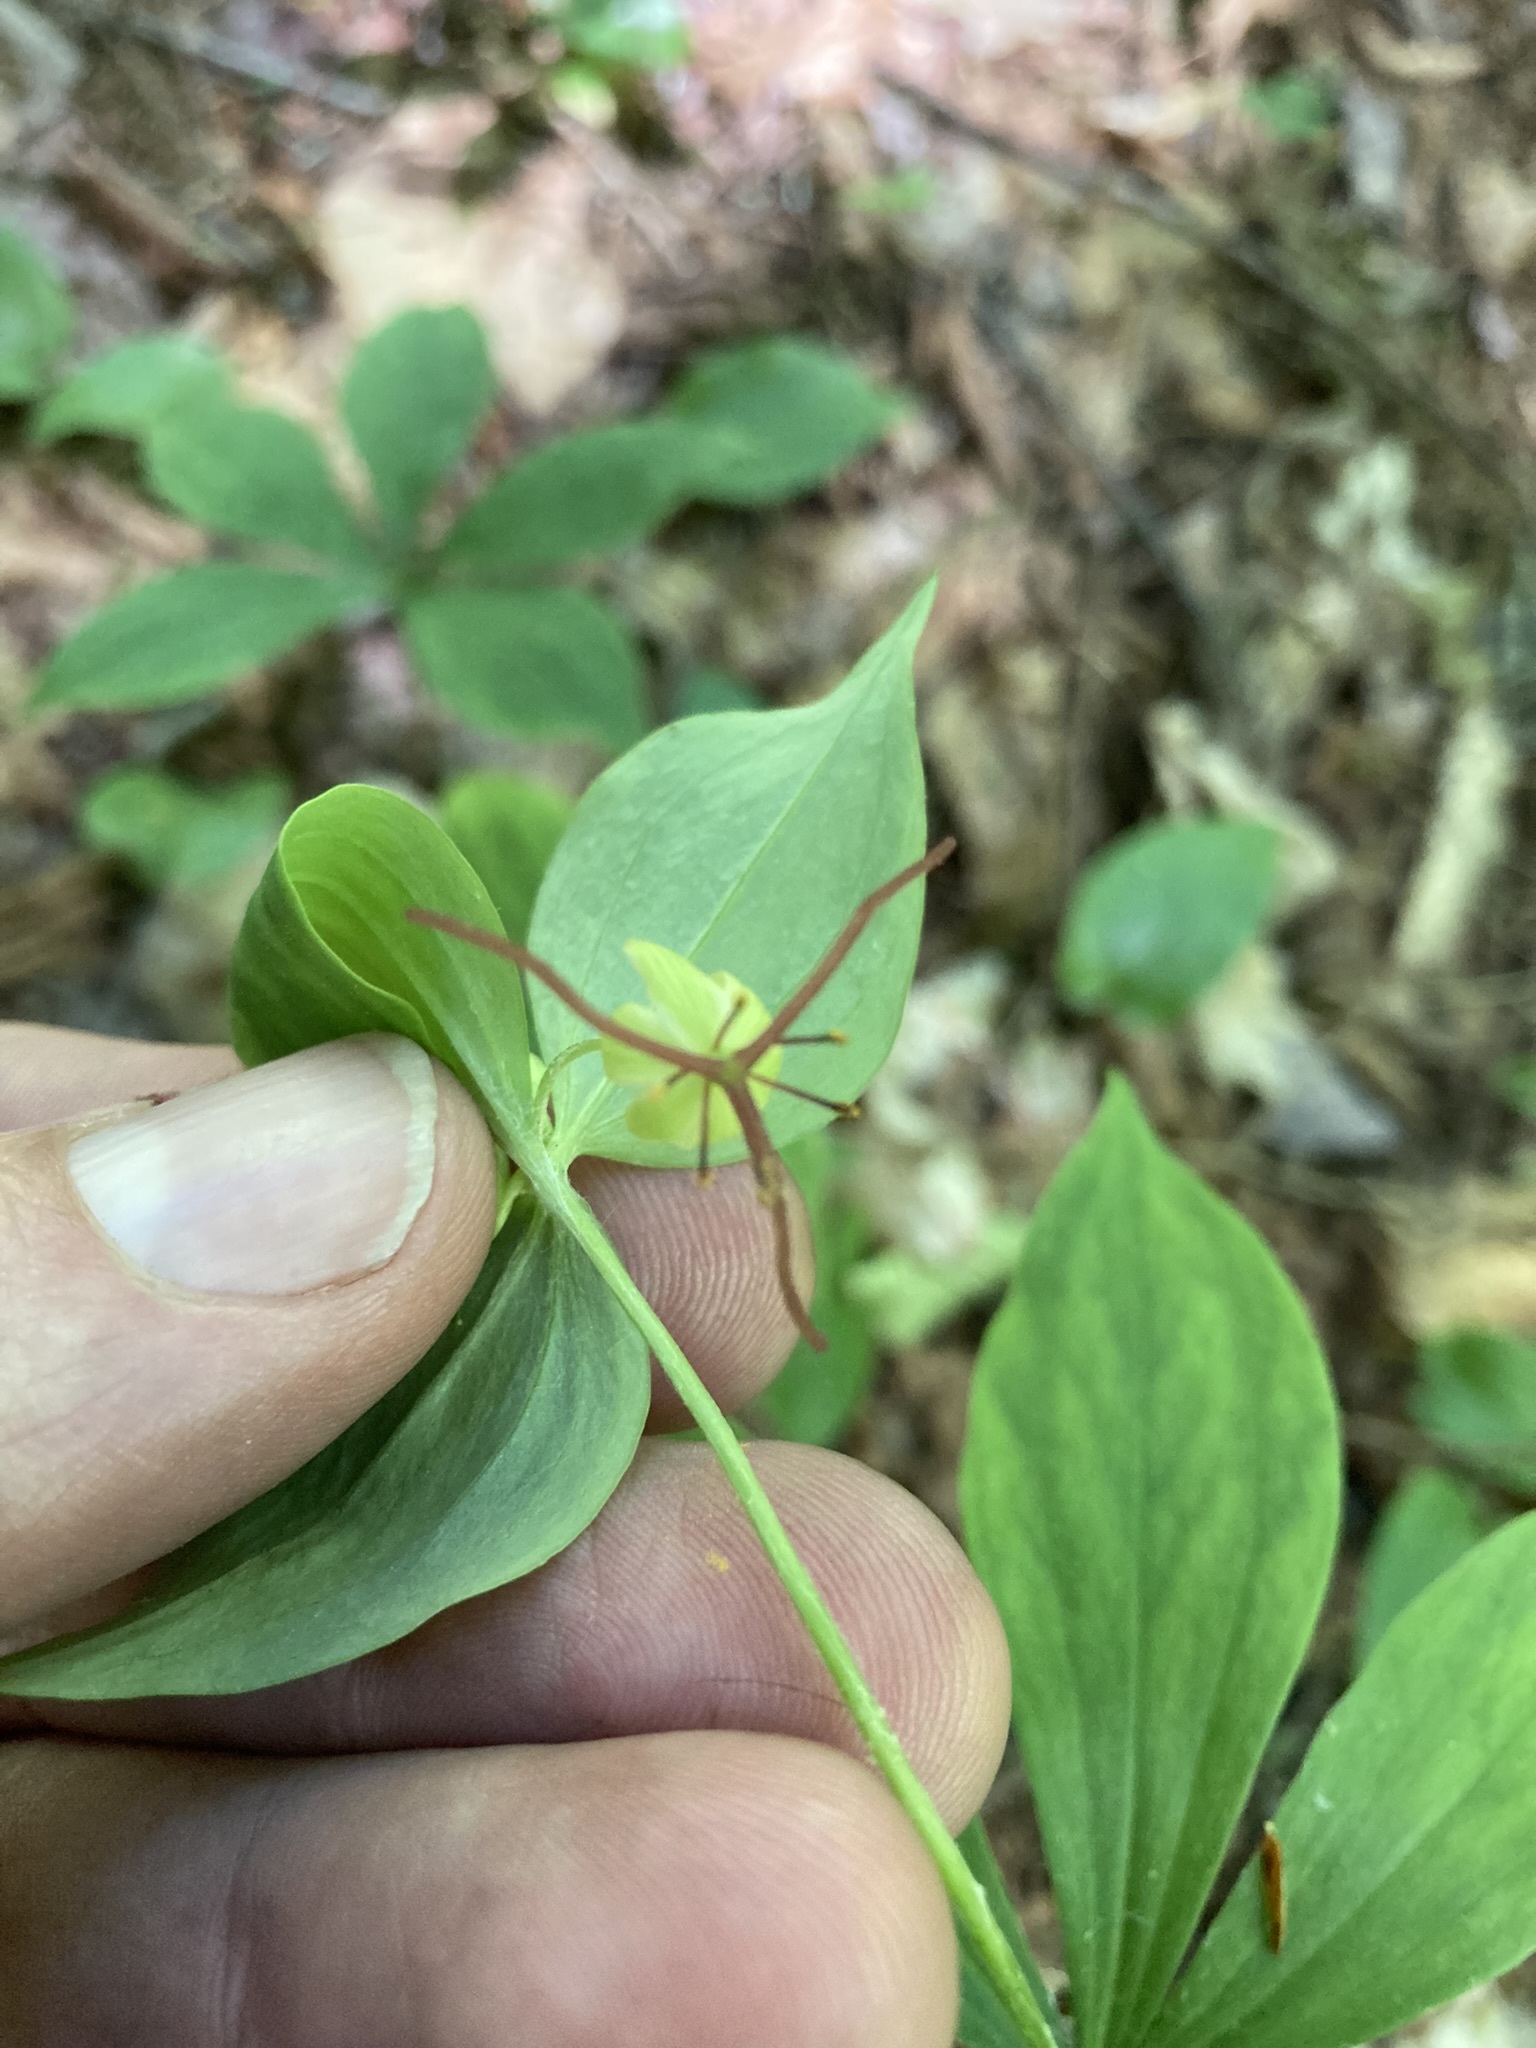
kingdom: Plantae
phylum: Tracheophyta
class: Liliopsida
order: Liliales
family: Liliaceae
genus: Medeola
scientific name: Medeola virginiana
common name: Indian cucumber-root
